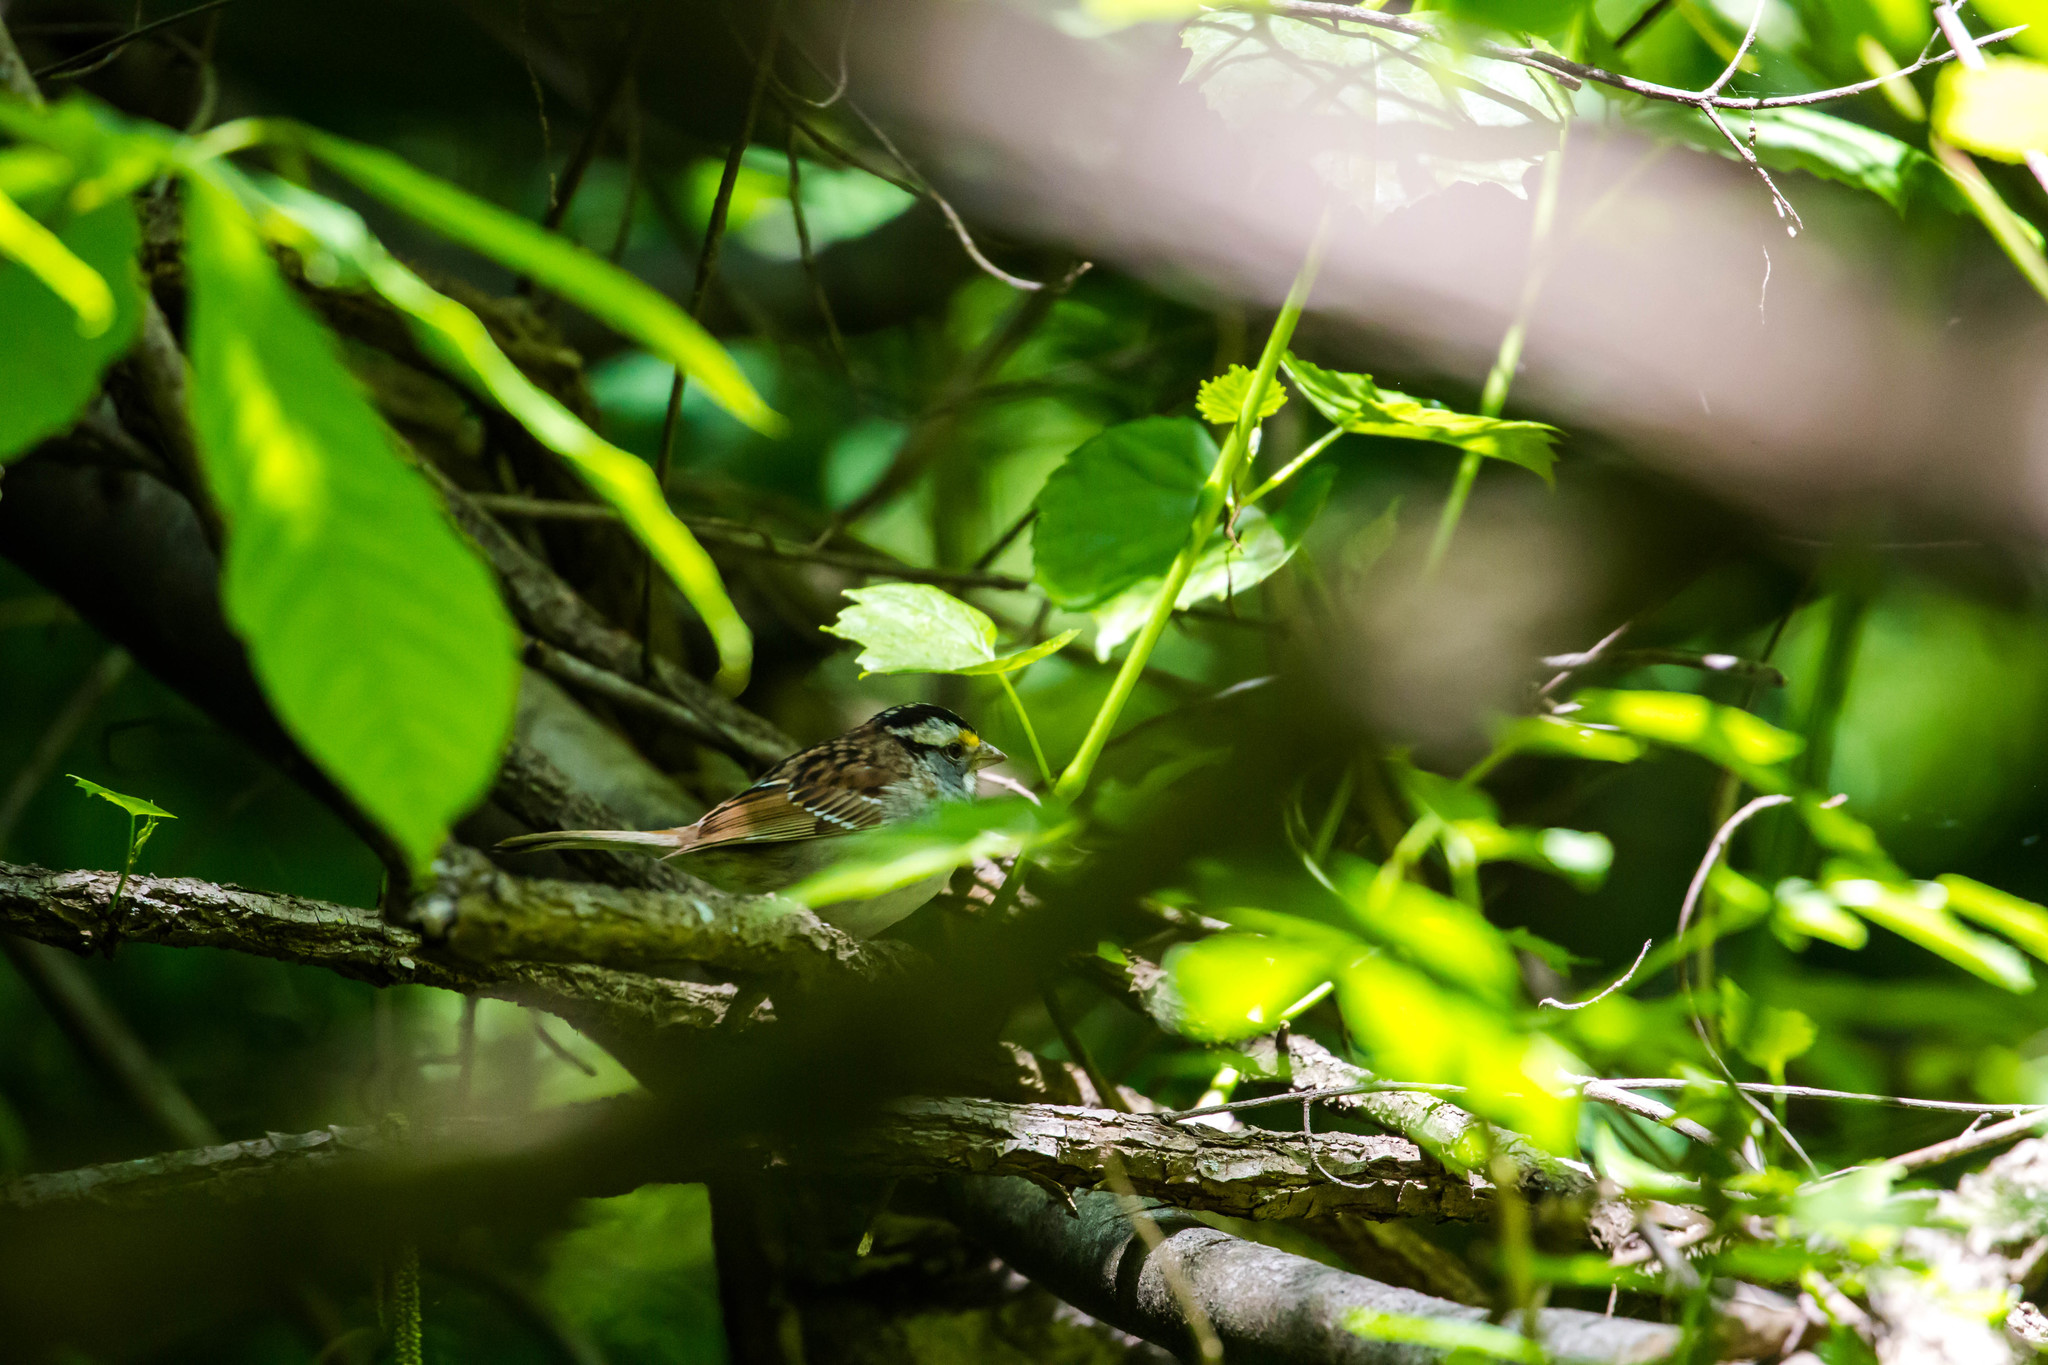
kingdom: Animalia
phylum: Chordata
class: Aves
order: Passeriformes
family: Passerellidae
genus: Zonotrichia
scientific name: Zonotrichia albicollis
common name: White-throated sparrow
